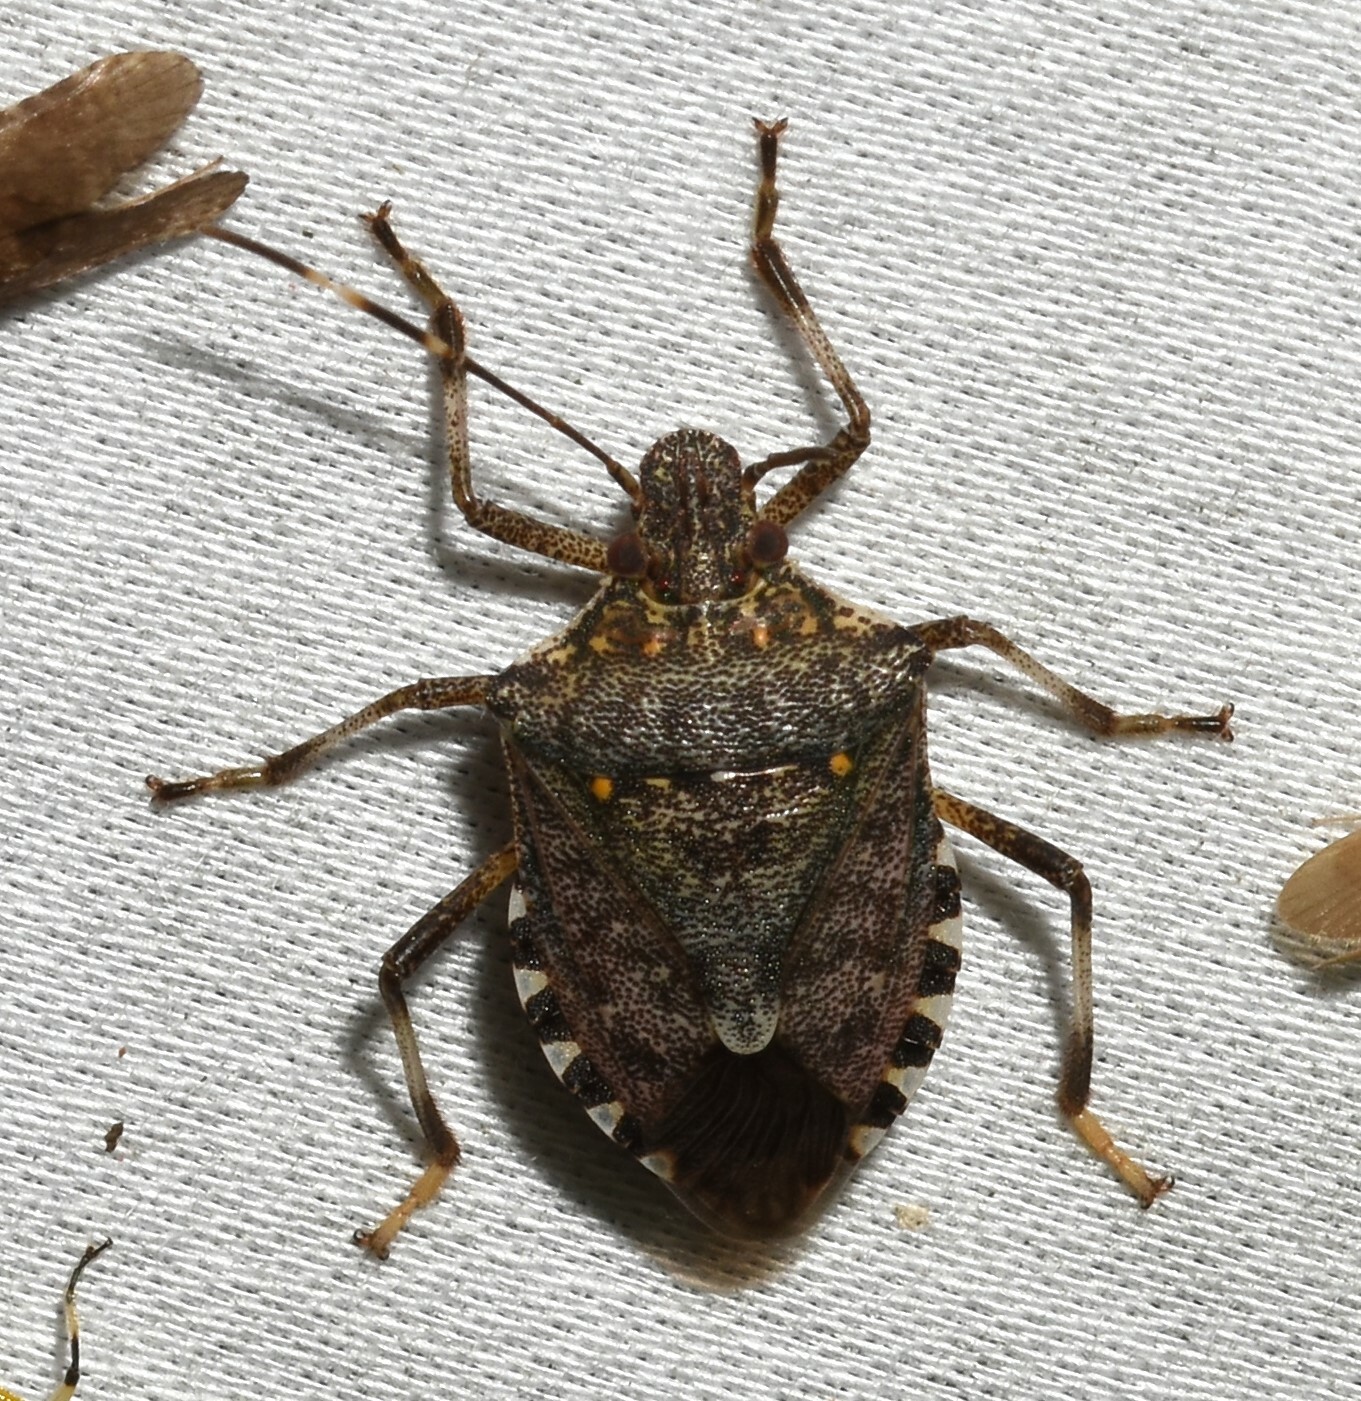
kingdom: Animalia
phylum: Arthropoda
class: Insecta
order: Hemiptera
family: Pentatomidae
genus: Halyomorpha
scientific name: Halyomorpha halys
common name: Brown marmorated stink bug
